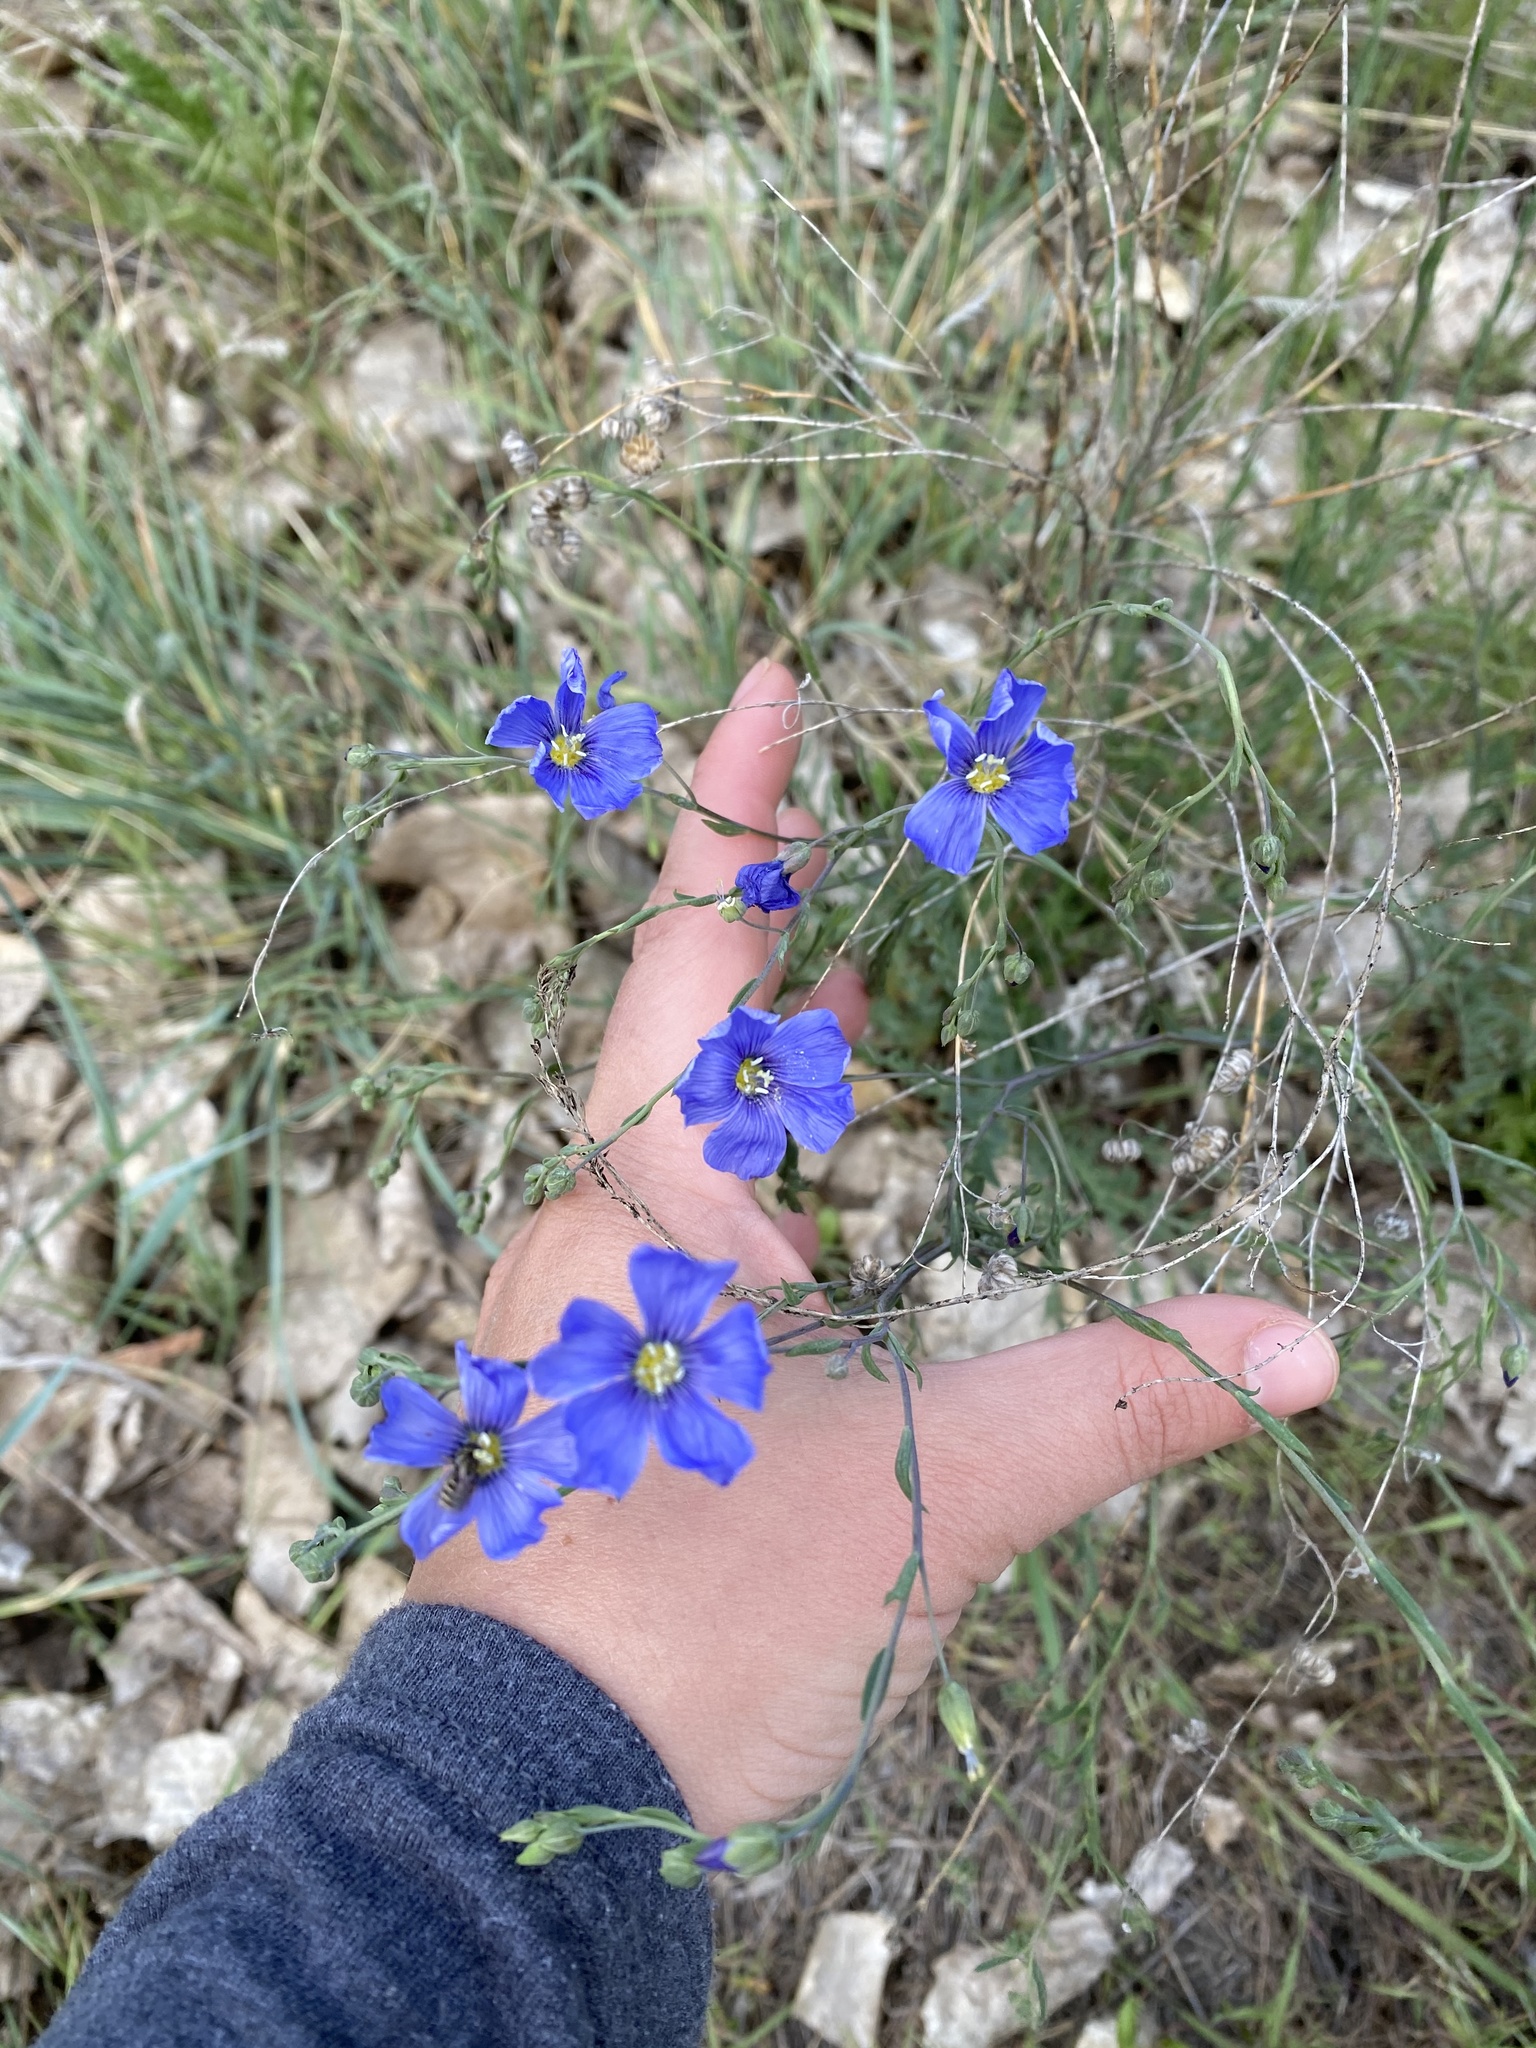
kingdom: Plantae
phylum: Tracheophyta
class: Magnoliopsida
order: Malpighiales
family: Linaceae
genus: Linum
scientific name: Linum lewisii
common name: Prairie flax
